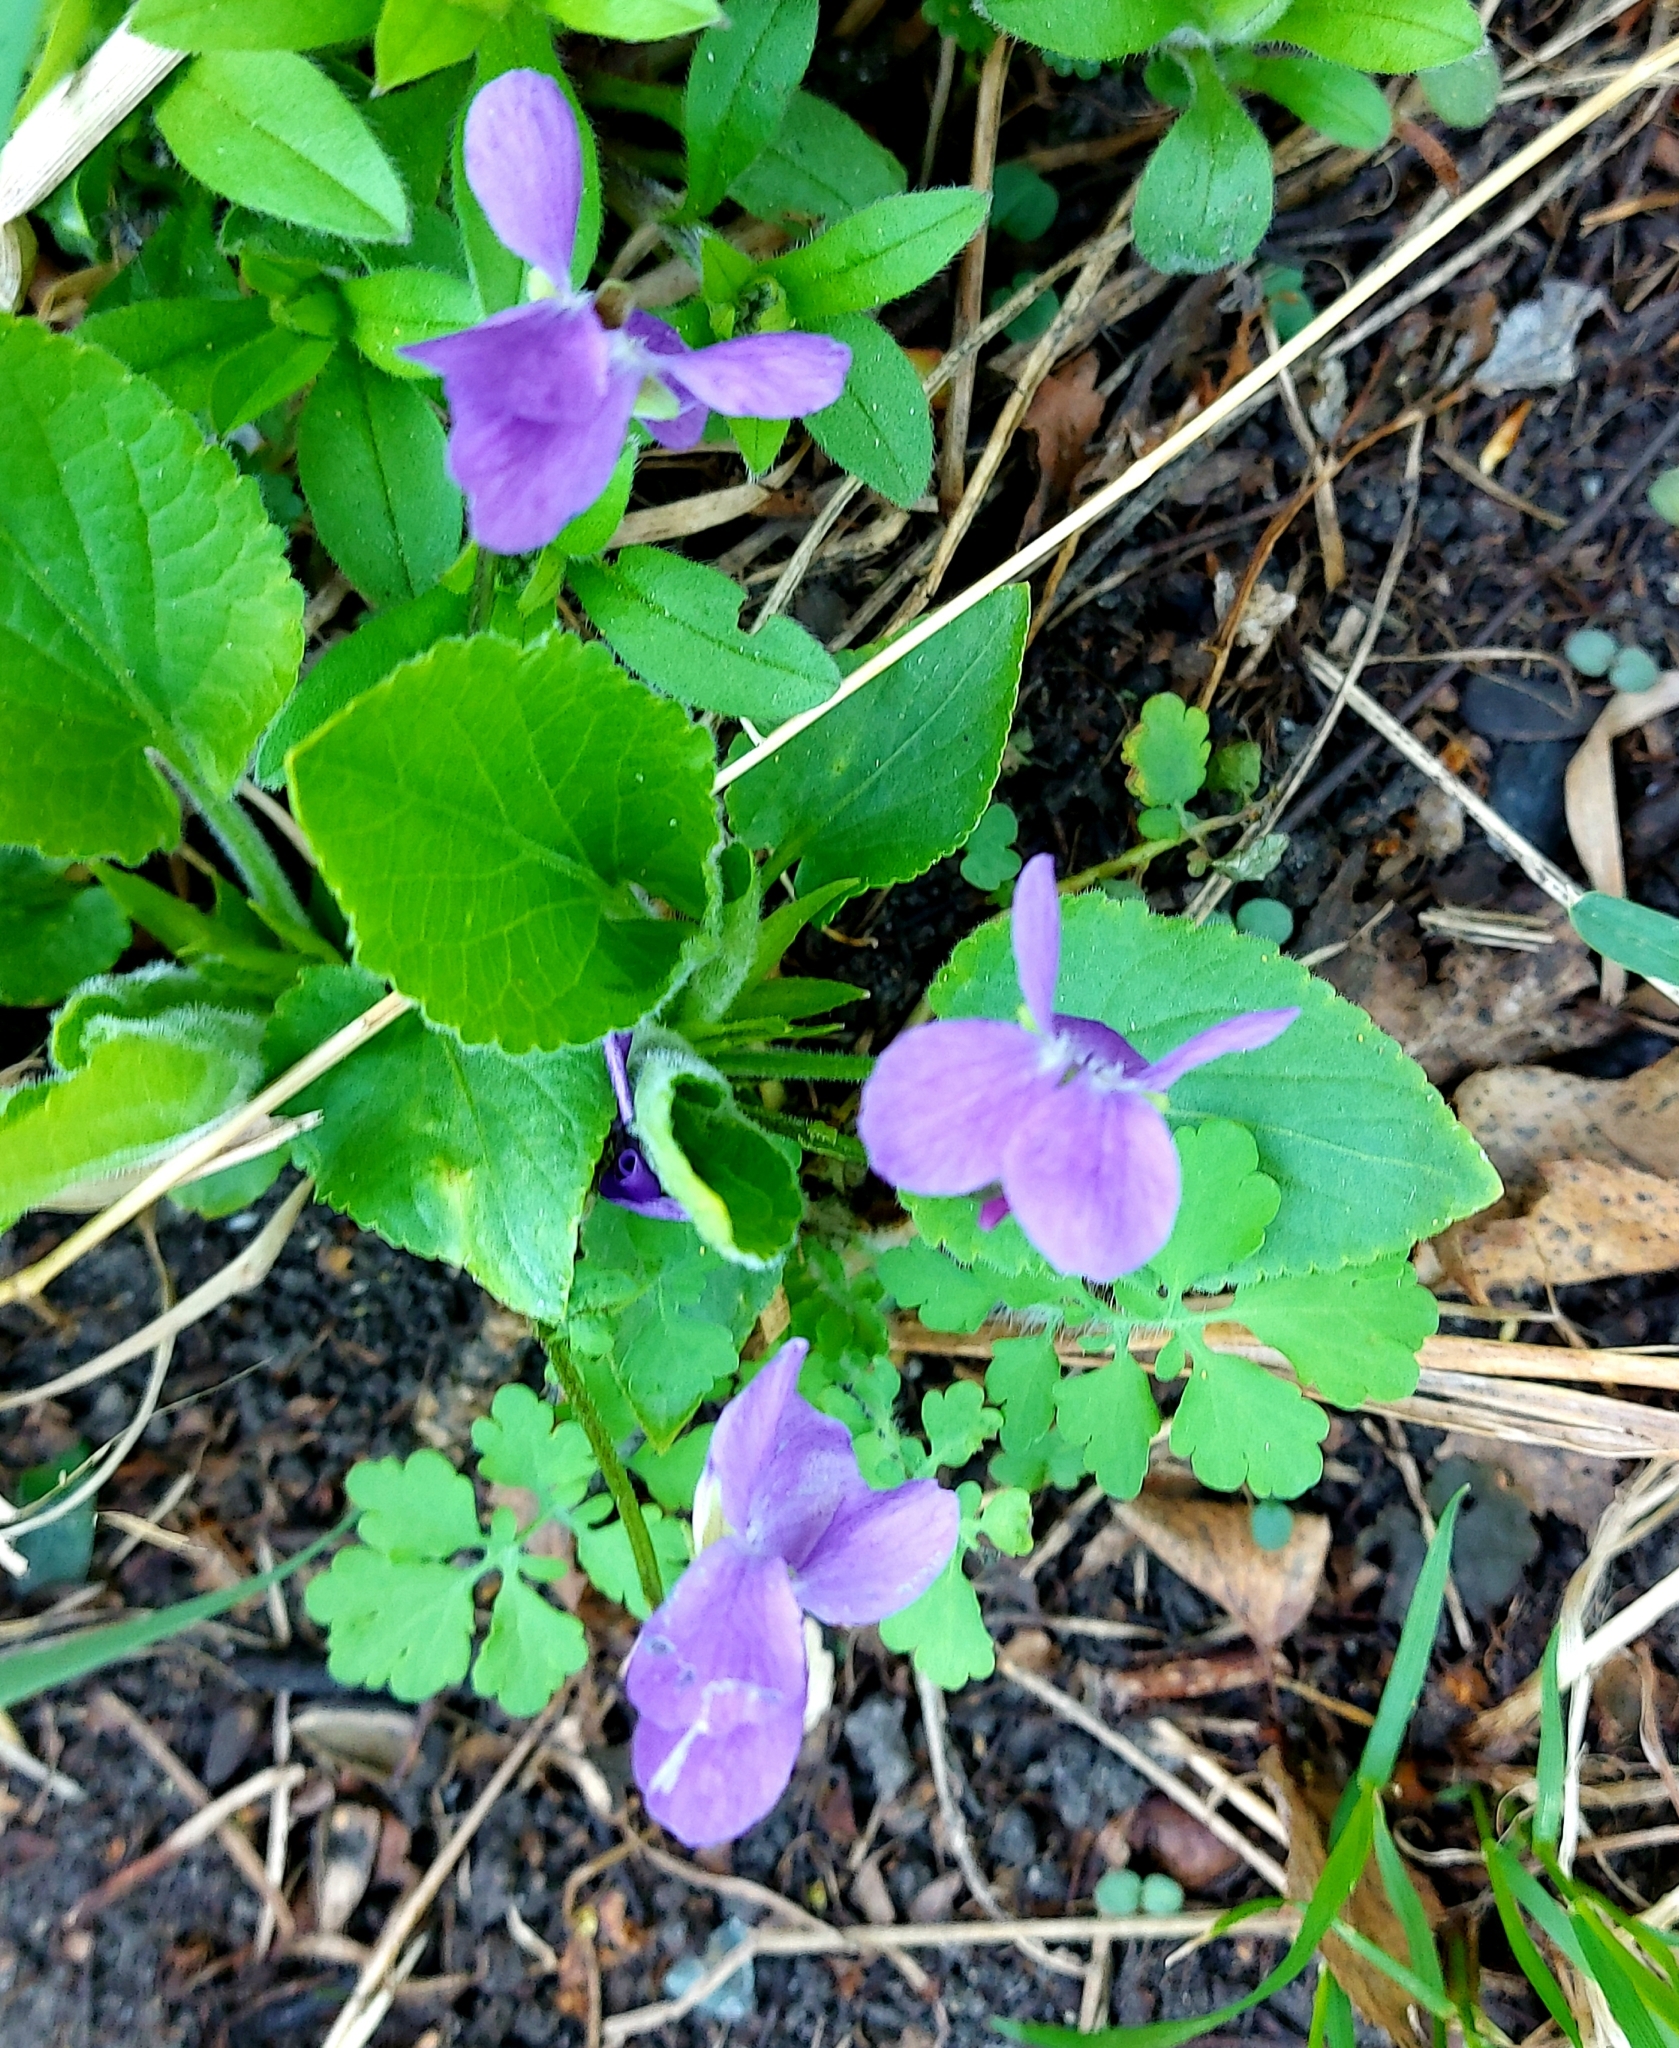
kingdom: Plantae
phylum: Tracheophyta
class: Magnoliopsida
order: Malpighiales
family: Violaceae
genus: Viola
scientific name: Viola hirta
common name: Hairy violet
